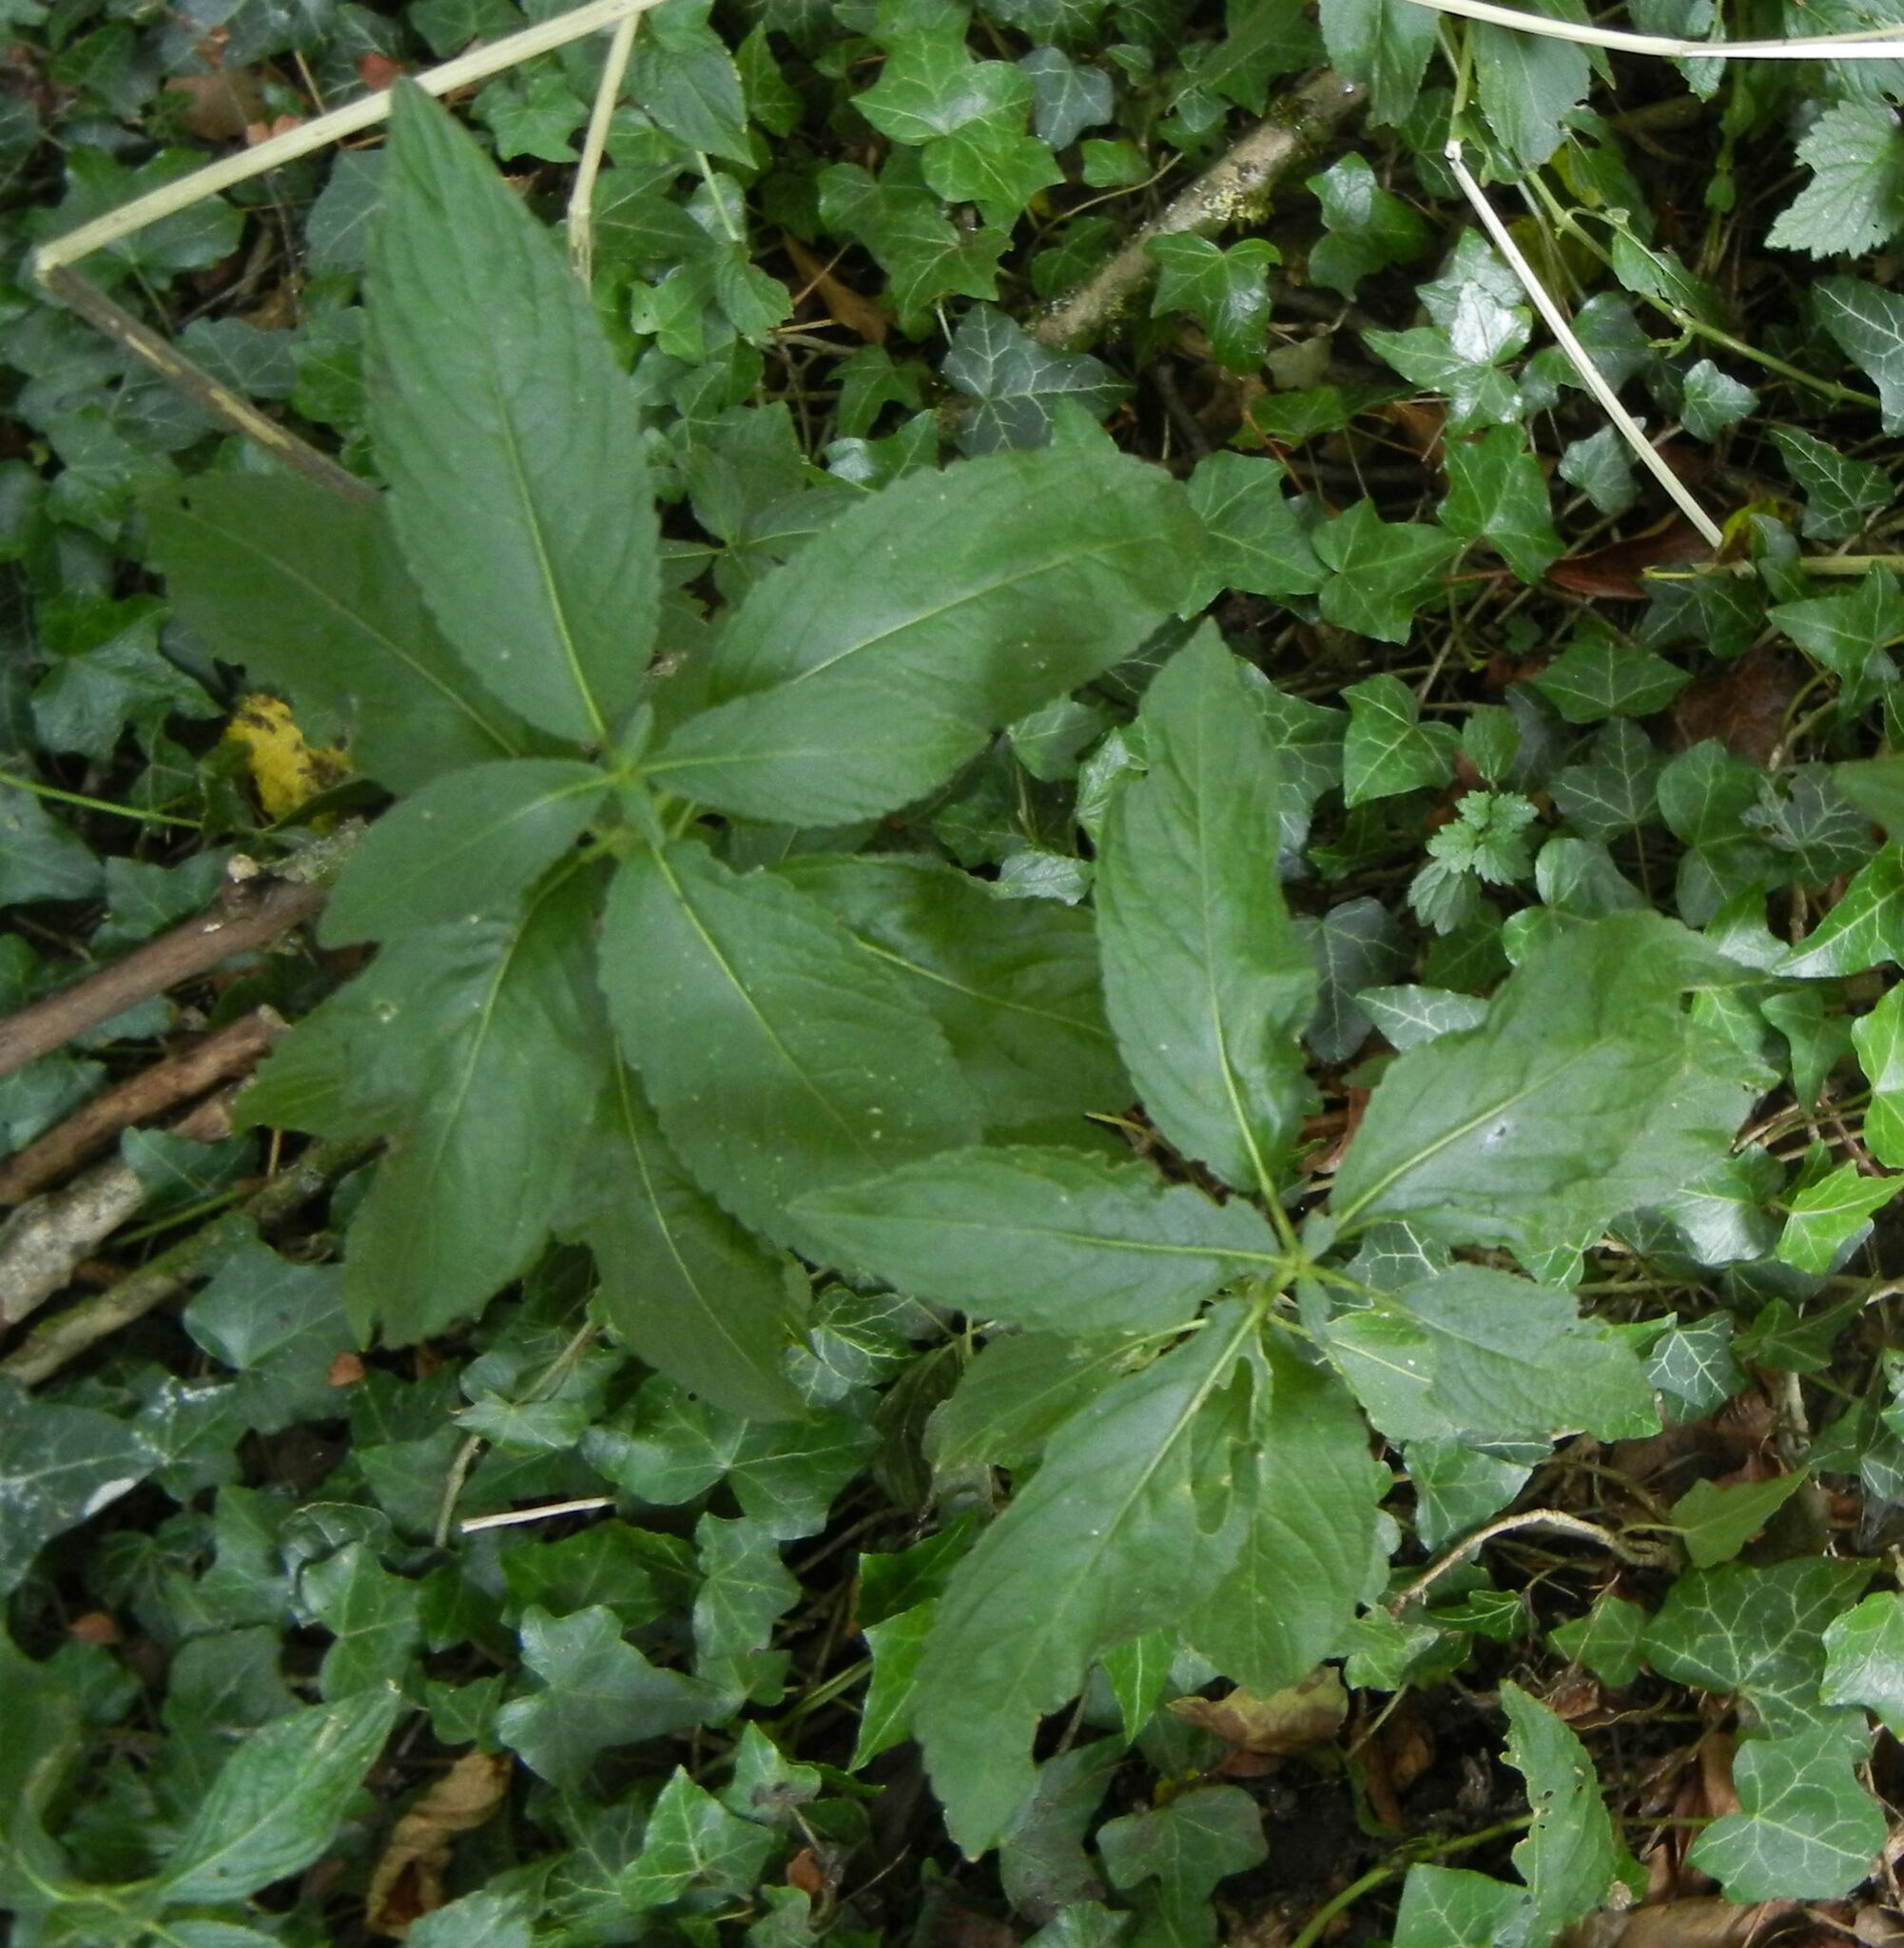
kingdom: Plantae
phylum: Tracheophyta
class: Magnoliopsida
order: Malpighiales
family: Euphorbiaceae
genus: Mercurialis
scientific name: Mercurialis perennis
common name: Dog mercury
